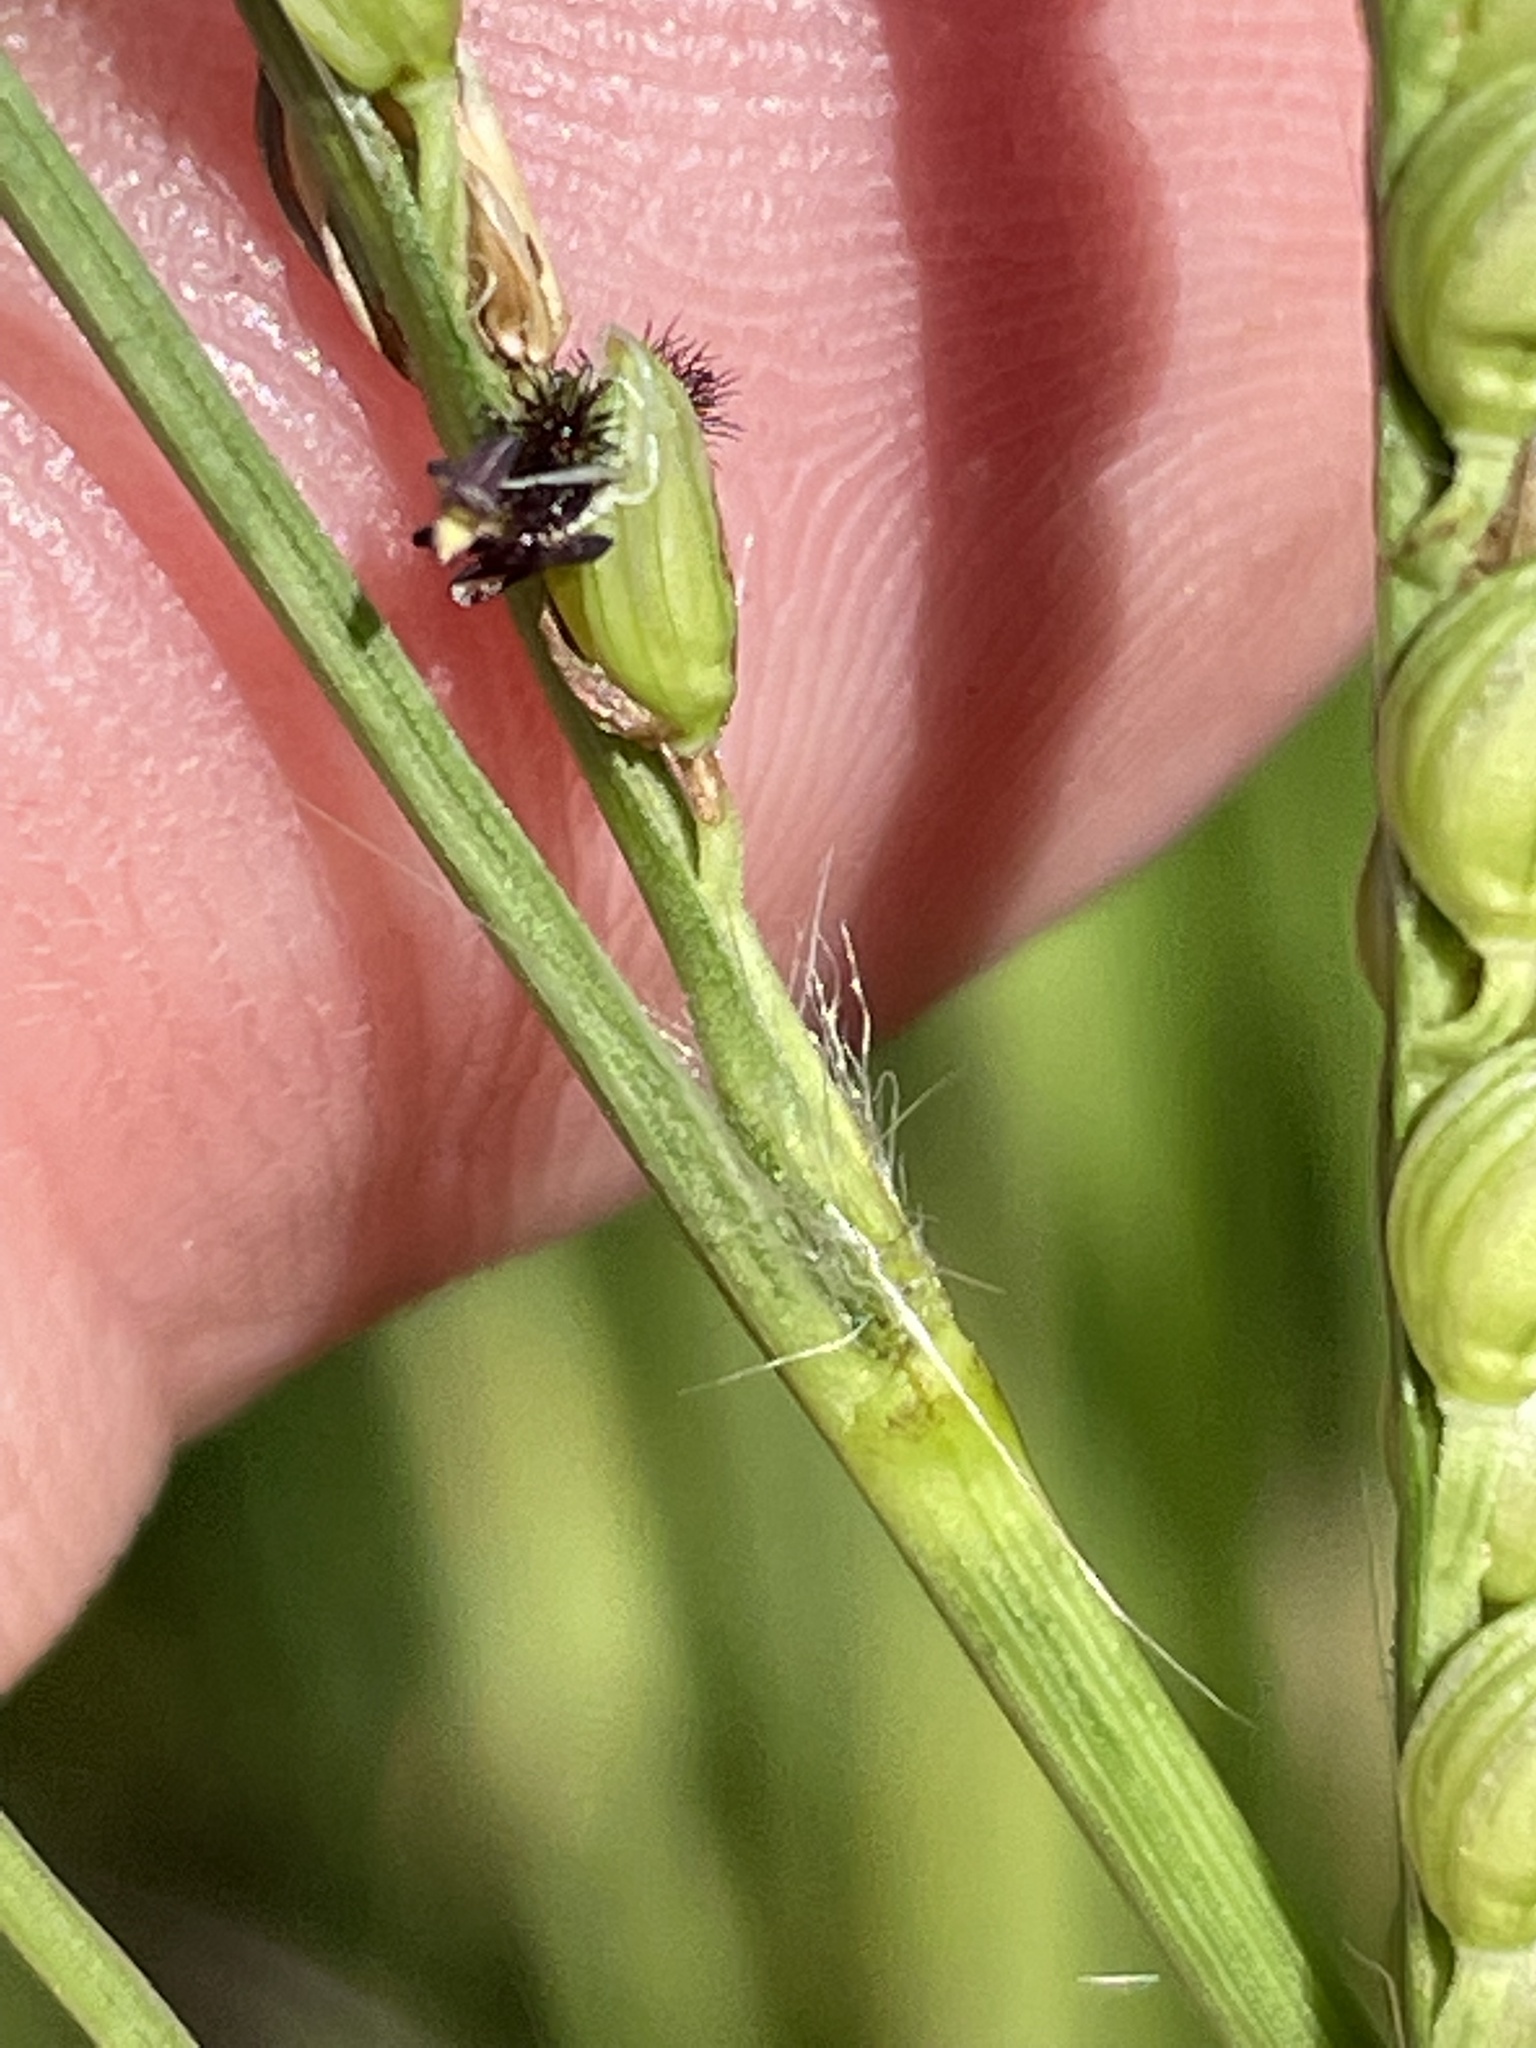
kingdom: Plantae
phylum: Tracheophyta
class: Liliopsida
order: Poales
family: Poaceae
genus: Paspalum
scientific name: Paspalum floridanum
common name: Florida paspalum
